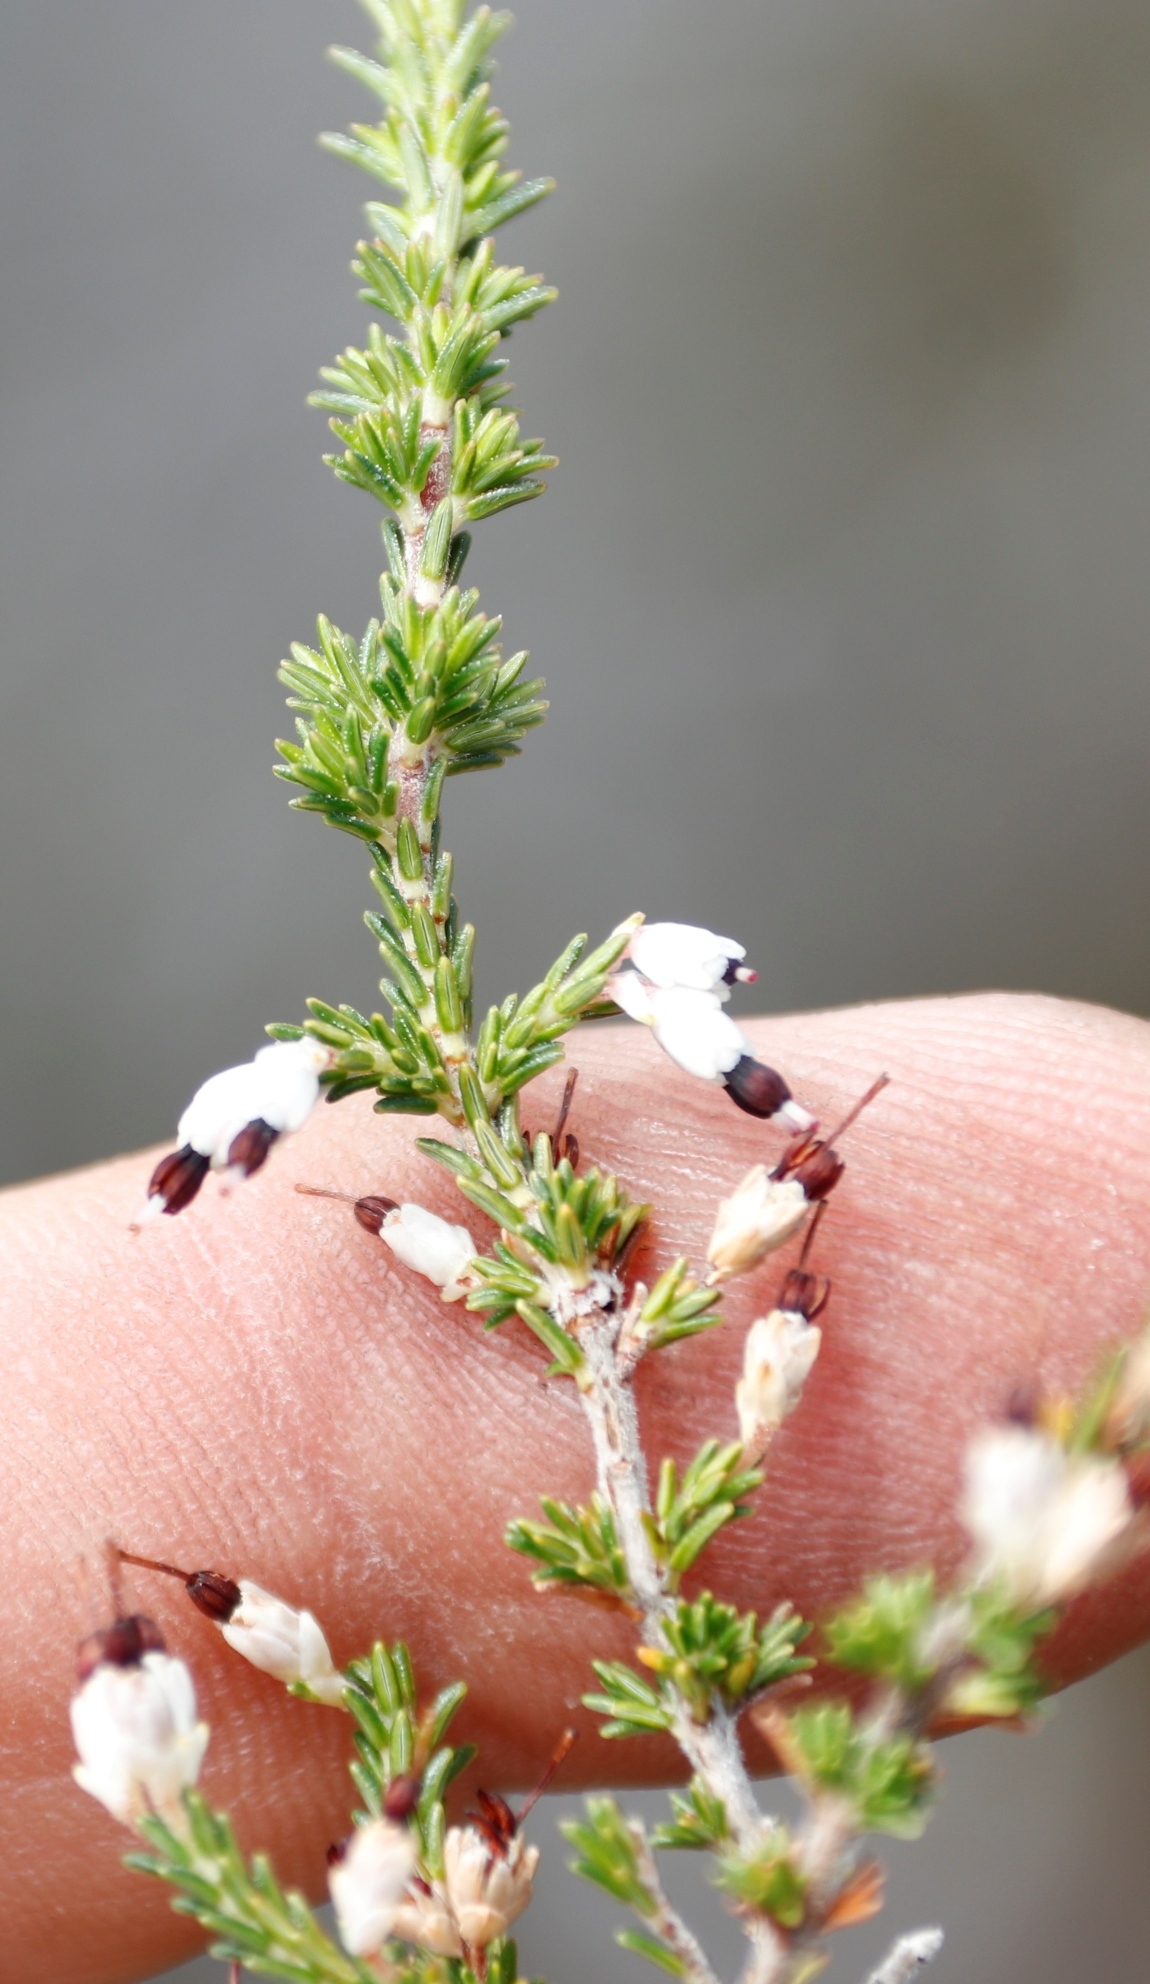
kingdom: Plantae
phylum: Tracheophyta
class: Magnoliopsida
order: Ericales
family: Ericaceae
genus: Erica
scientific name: Erica imbricata
